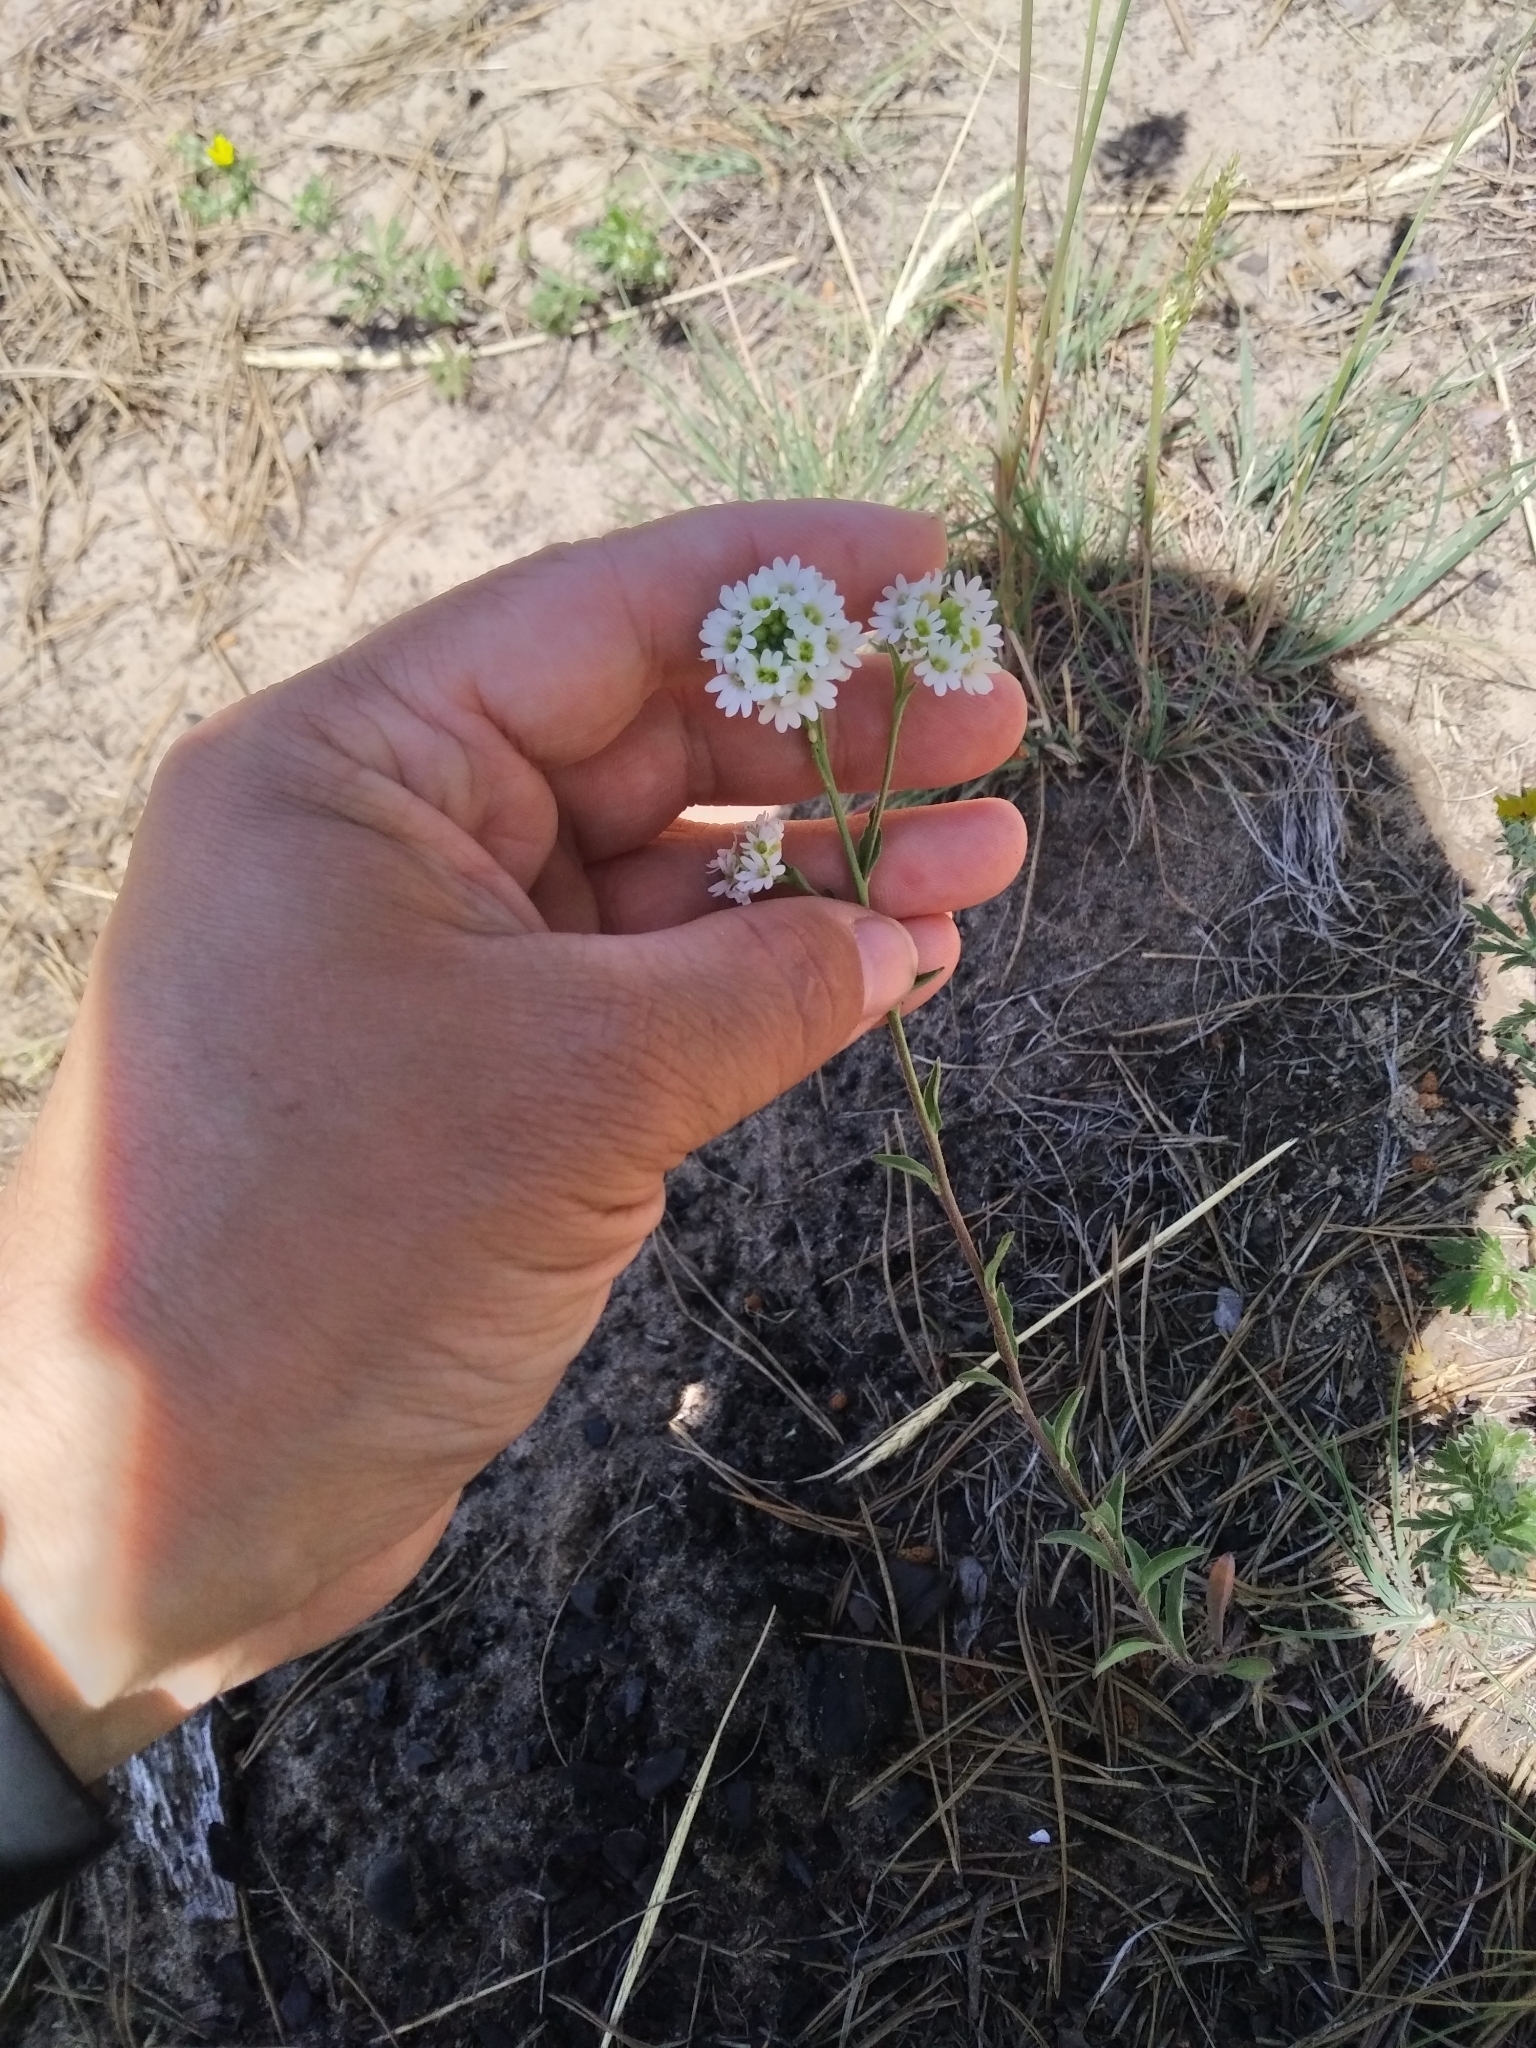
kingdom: Plantae
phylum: Tracheophyta
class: Magnoliopsida
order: Brassicales
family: Brassicaceae
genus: Berteroa
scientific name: Berteroa incana
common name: Hoary alison
